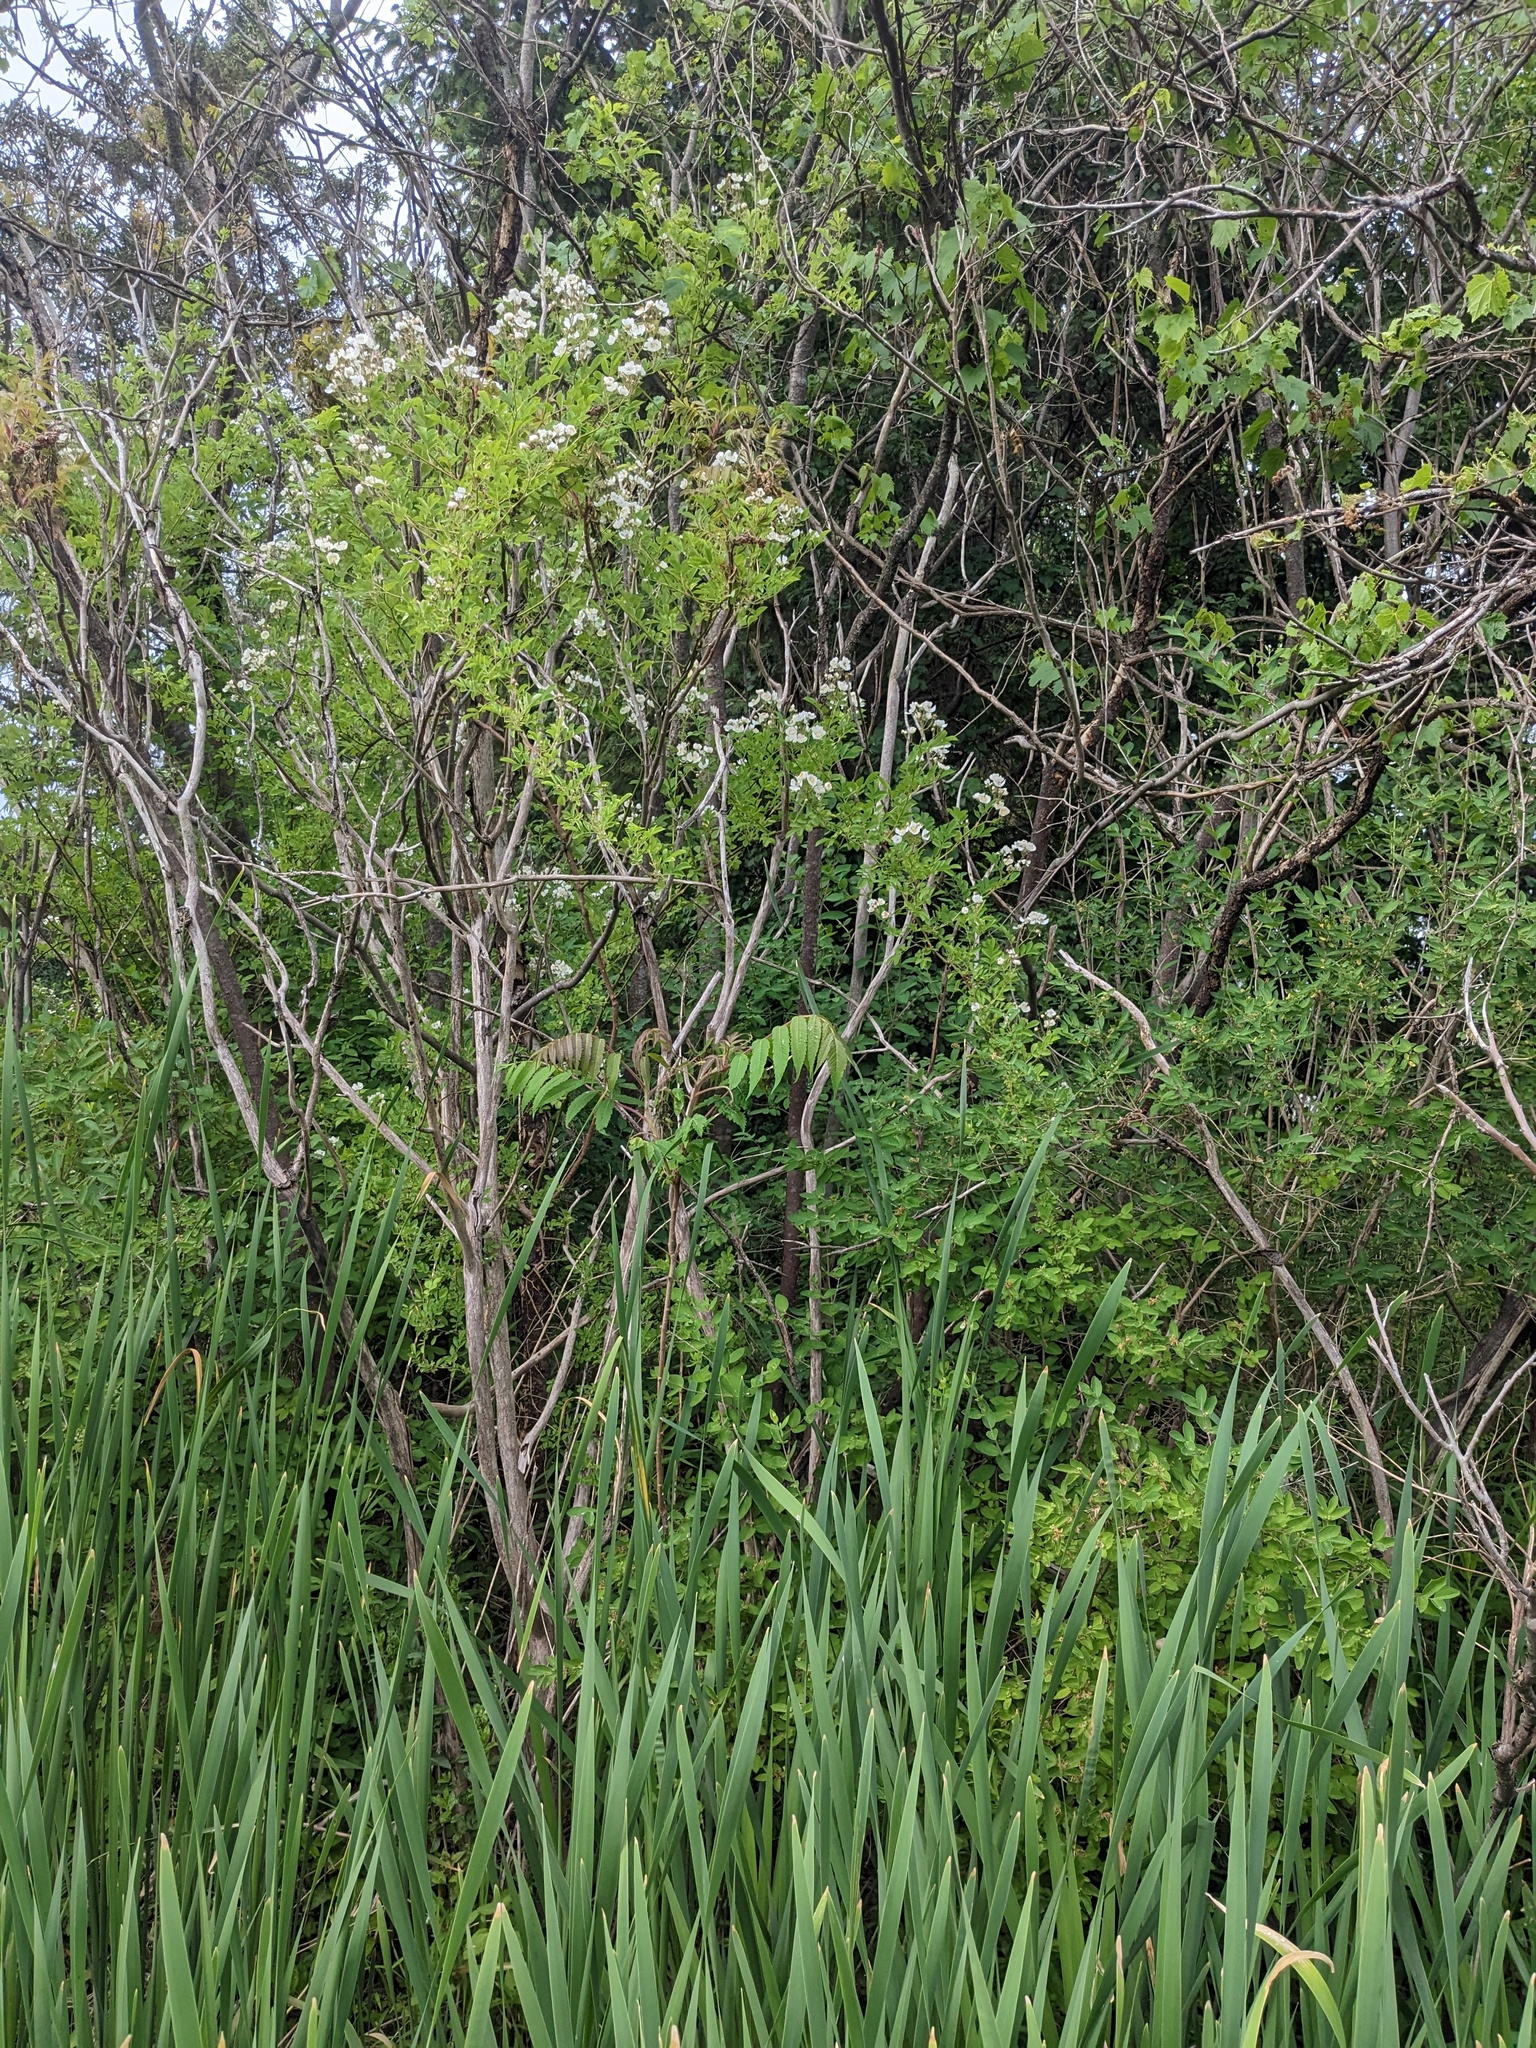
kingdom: Plantae
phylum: Tracheophyta
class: Magnoliopsida
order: Rosales
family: Rosaceae
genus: Rosa
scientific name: Rosa multiflora
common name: Multiflora rose
